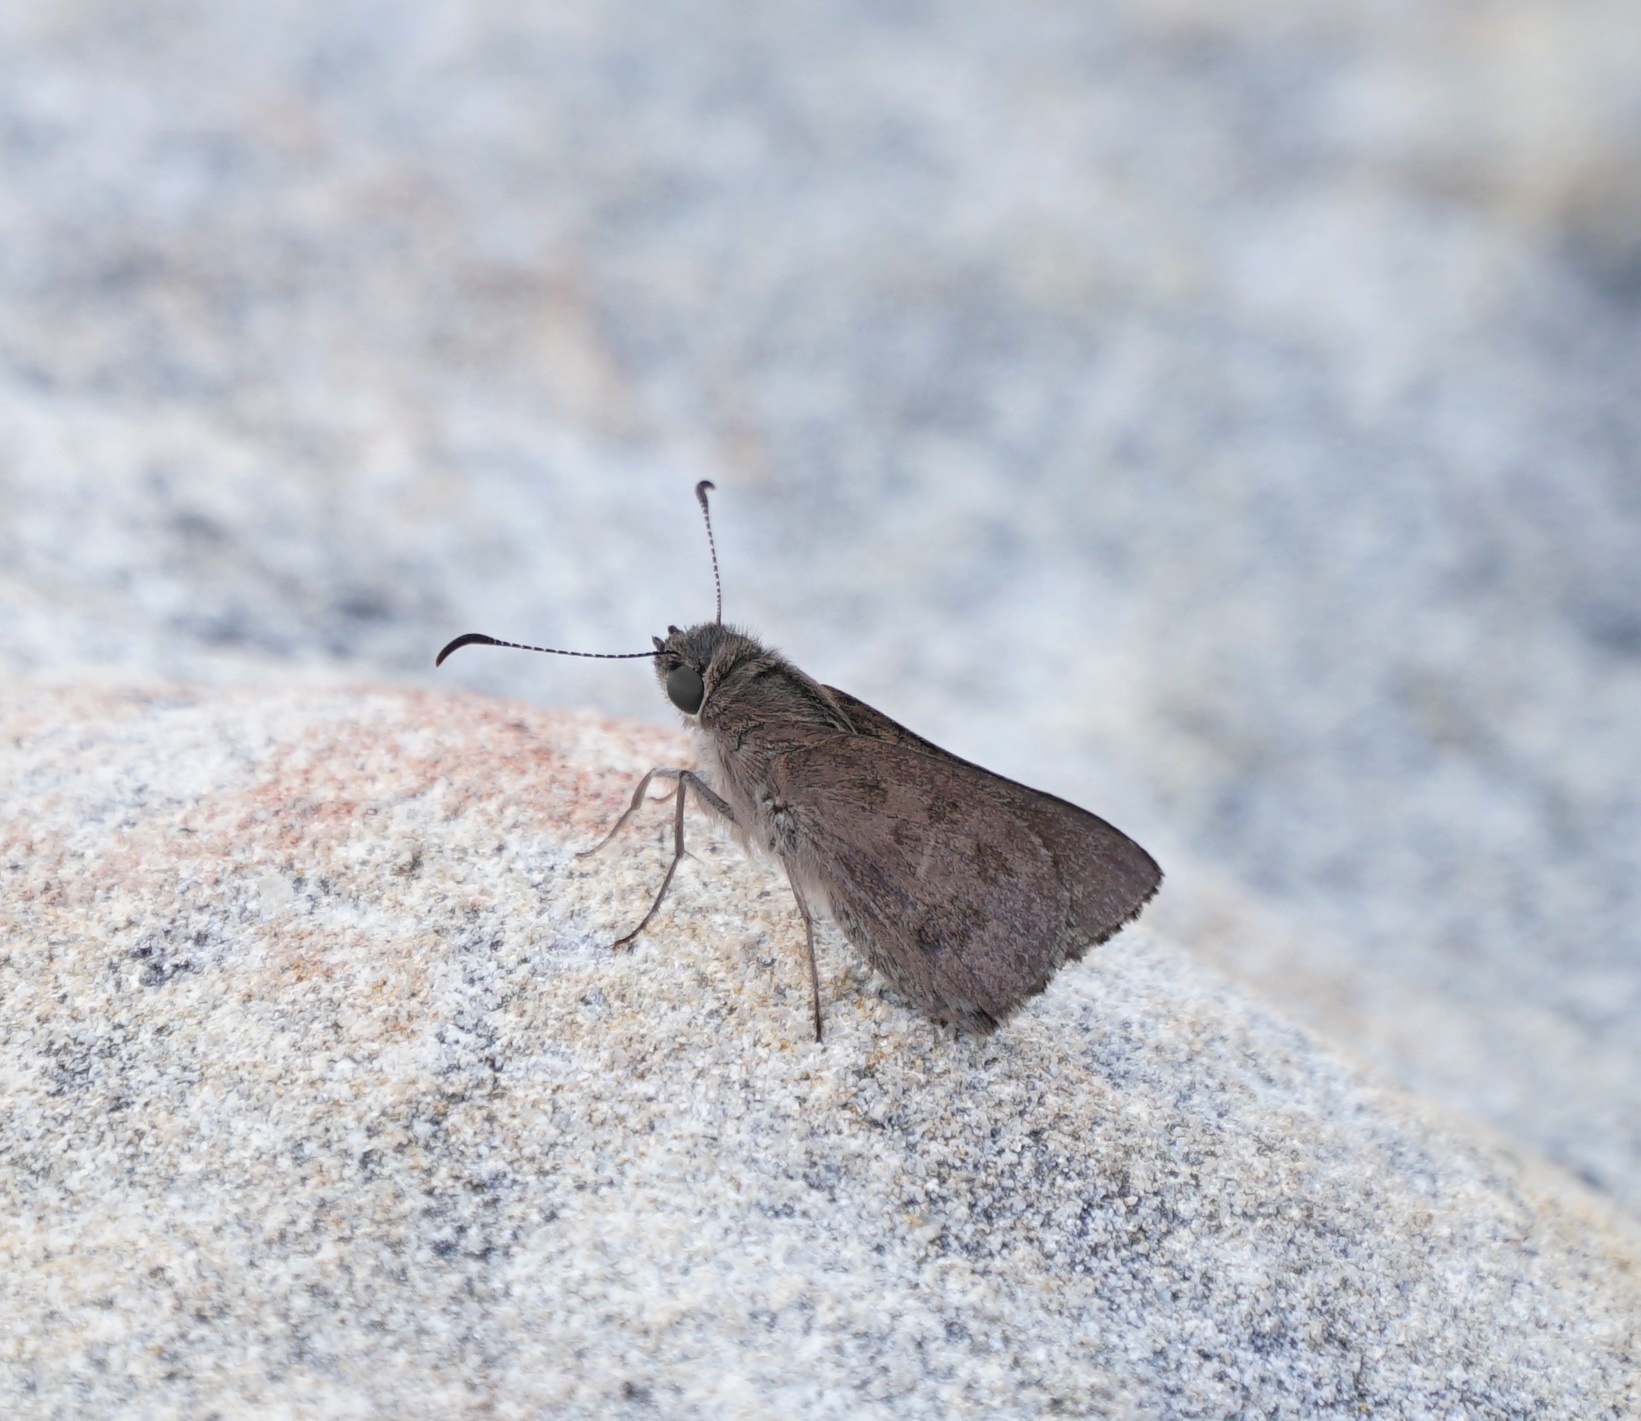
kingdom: Animalia
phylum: Arthropoda
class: Insecta
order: Lepidoptera
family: Hesperiidae
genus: Mesodina
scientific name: Mesodina halyzia
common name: Eastern iris-skipper
